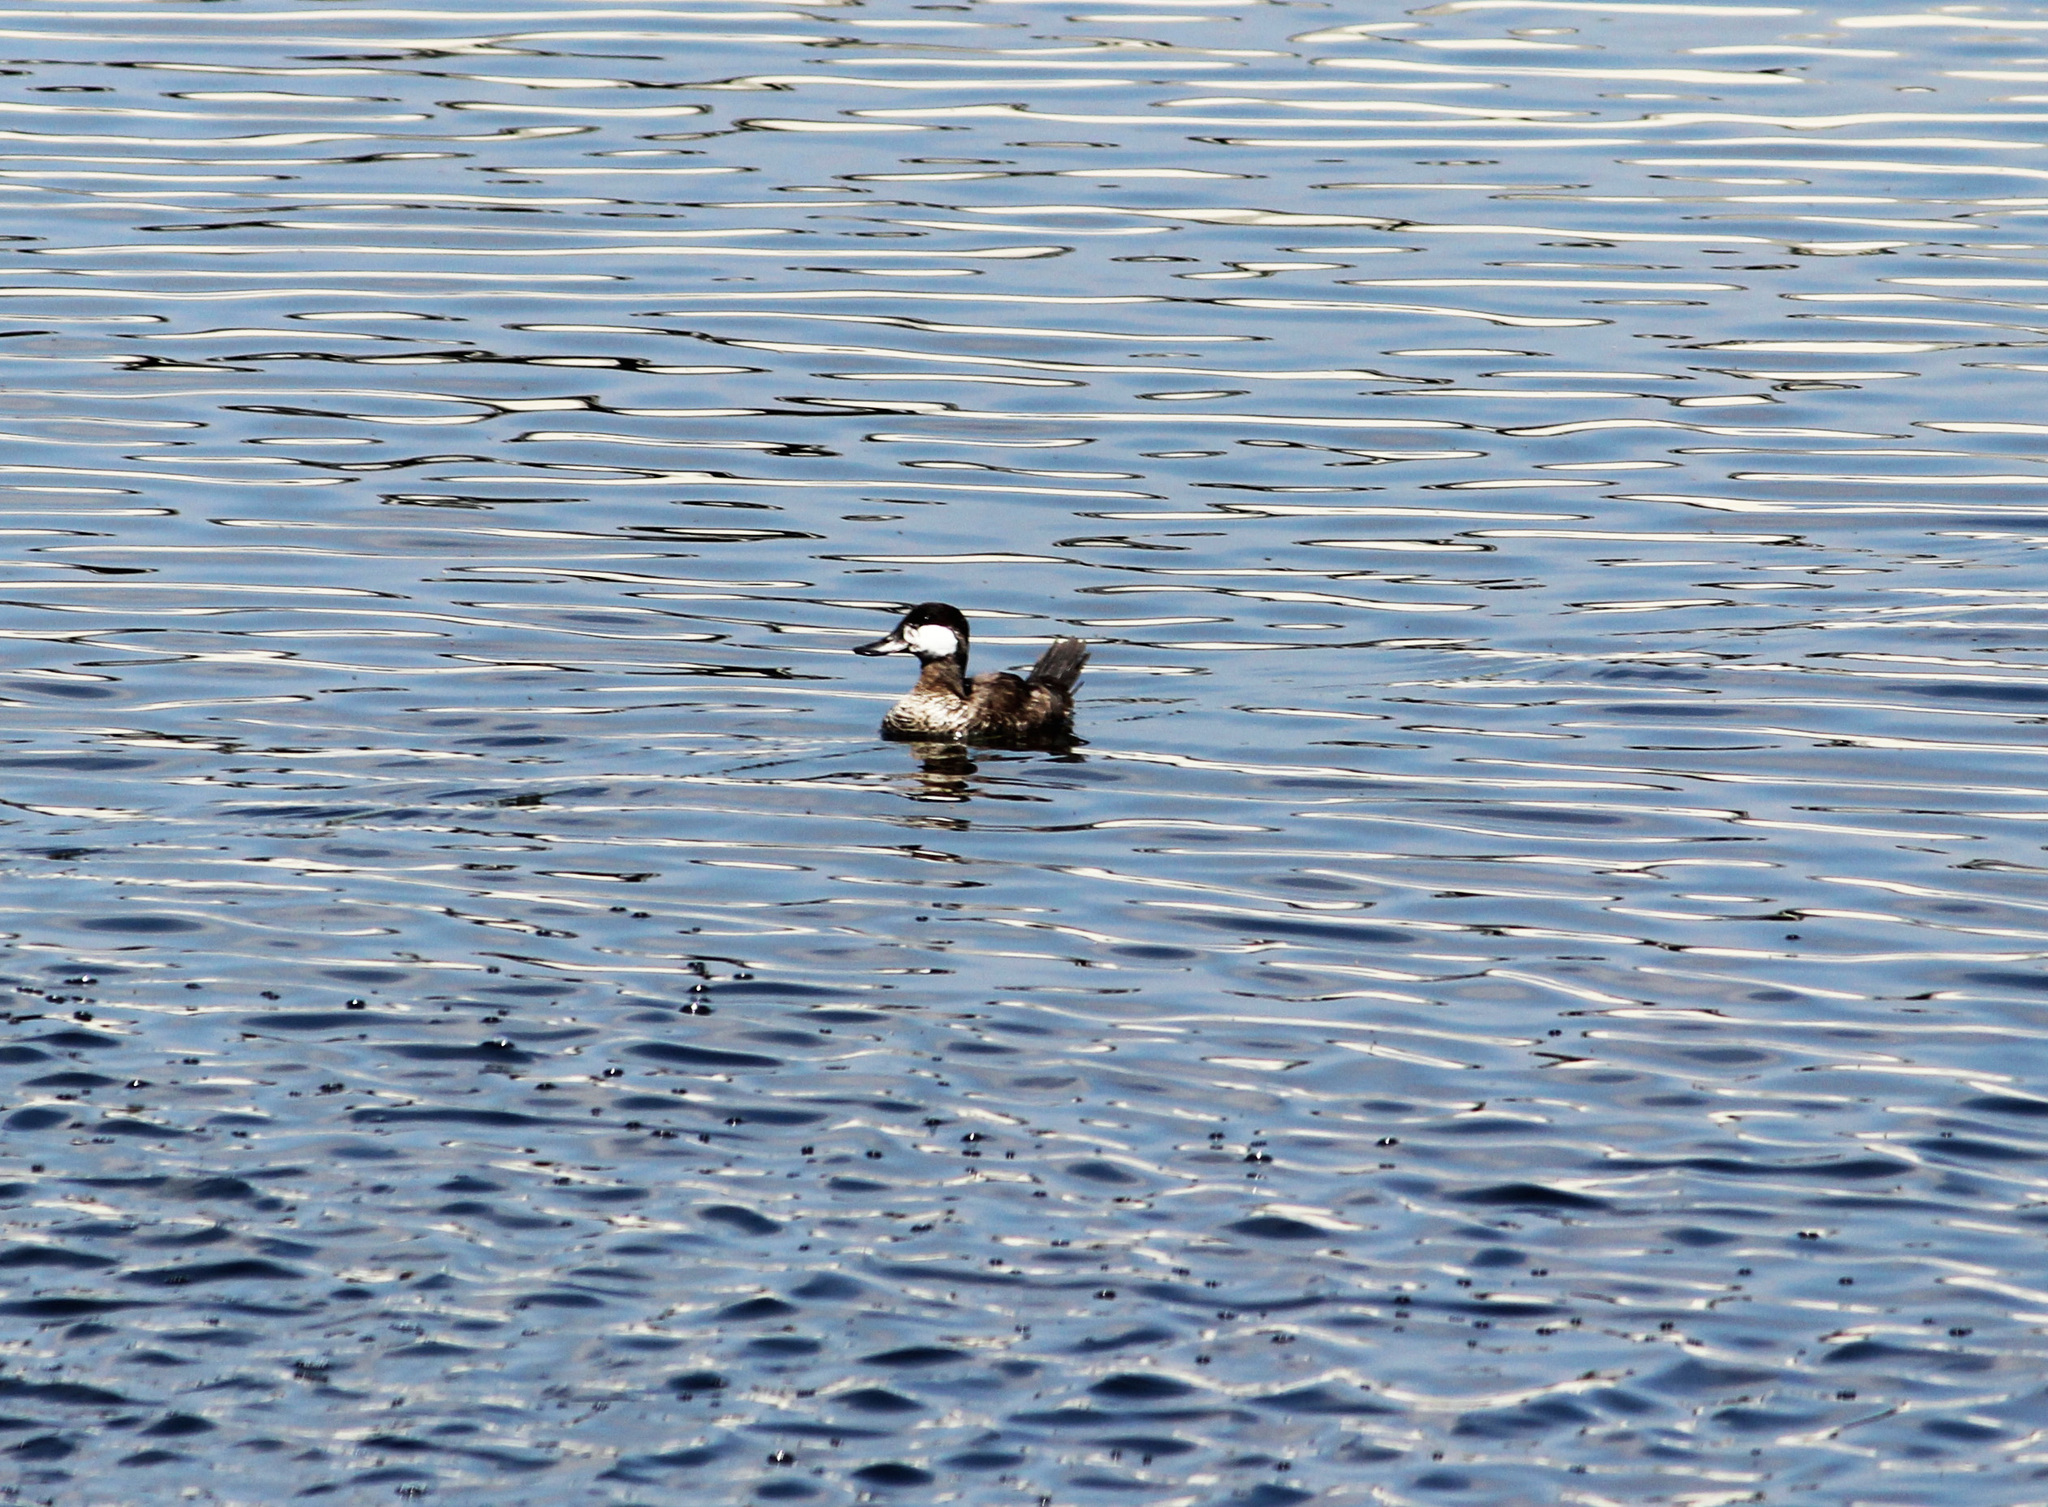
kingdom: Animalia
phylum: Chordata
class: Aves
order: Anseriformes
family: Anatidae
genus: Oxyura
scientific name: Oxyura jamaicensis
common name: Ruddy duck
